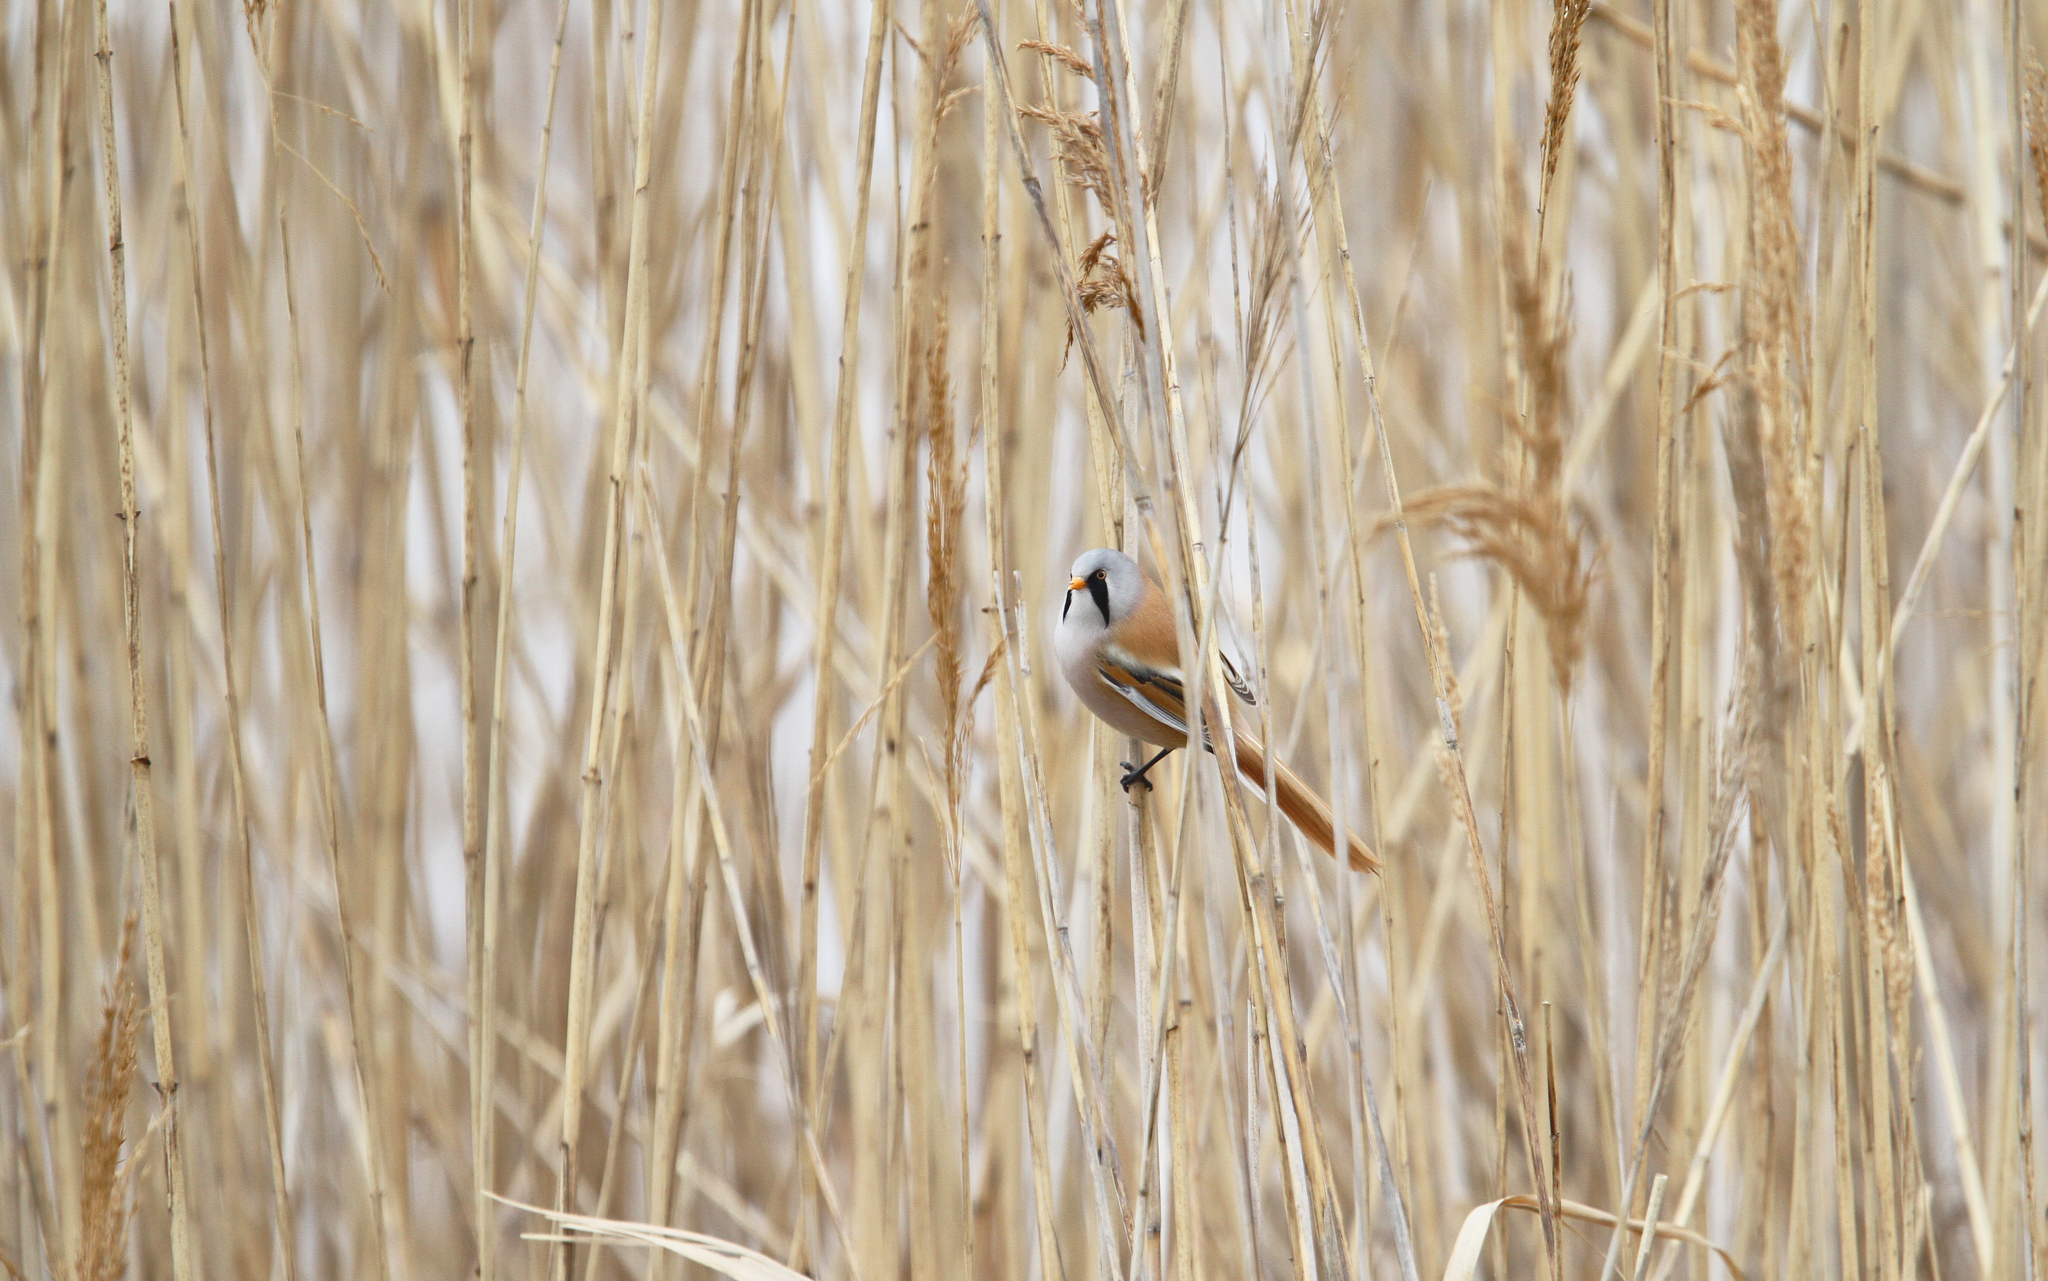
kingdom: Animalia
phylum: Chordata
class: Aves
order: Passeriformes
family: Panuridae
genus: Panurus
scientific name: Panurus biarmicus
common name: Bearded reedling
